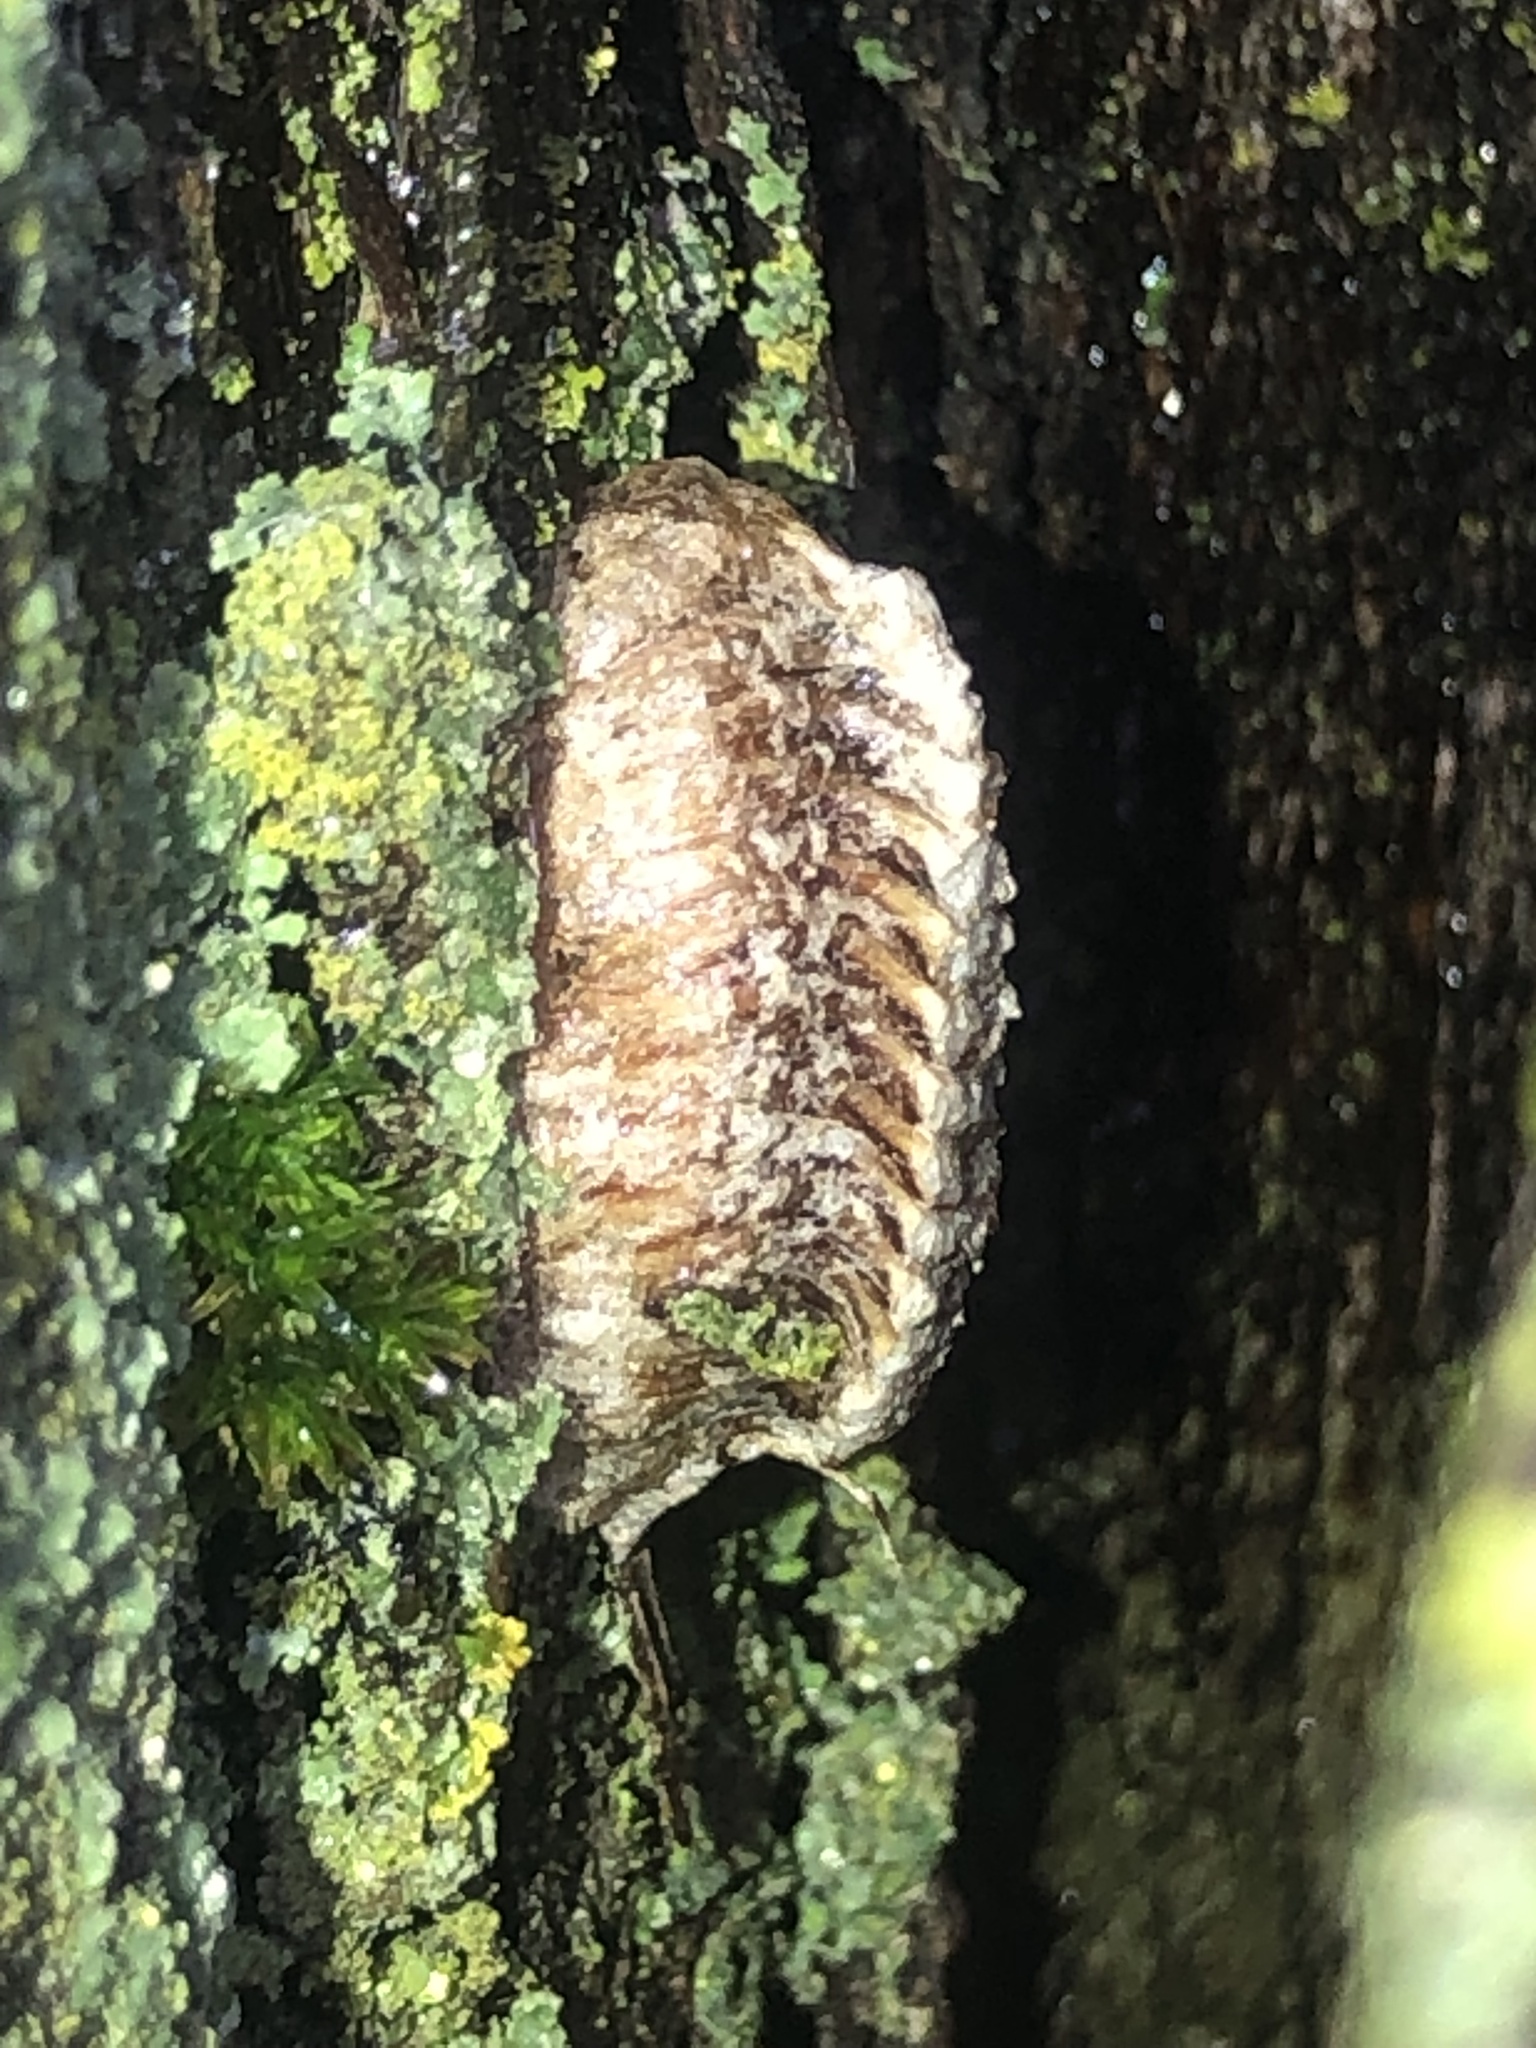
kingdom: Animalia
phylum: Arthropoda
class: Insecta
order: Mantodea
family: Mantidae
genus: Stagmomantis
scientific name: Stagmomantis carolina
